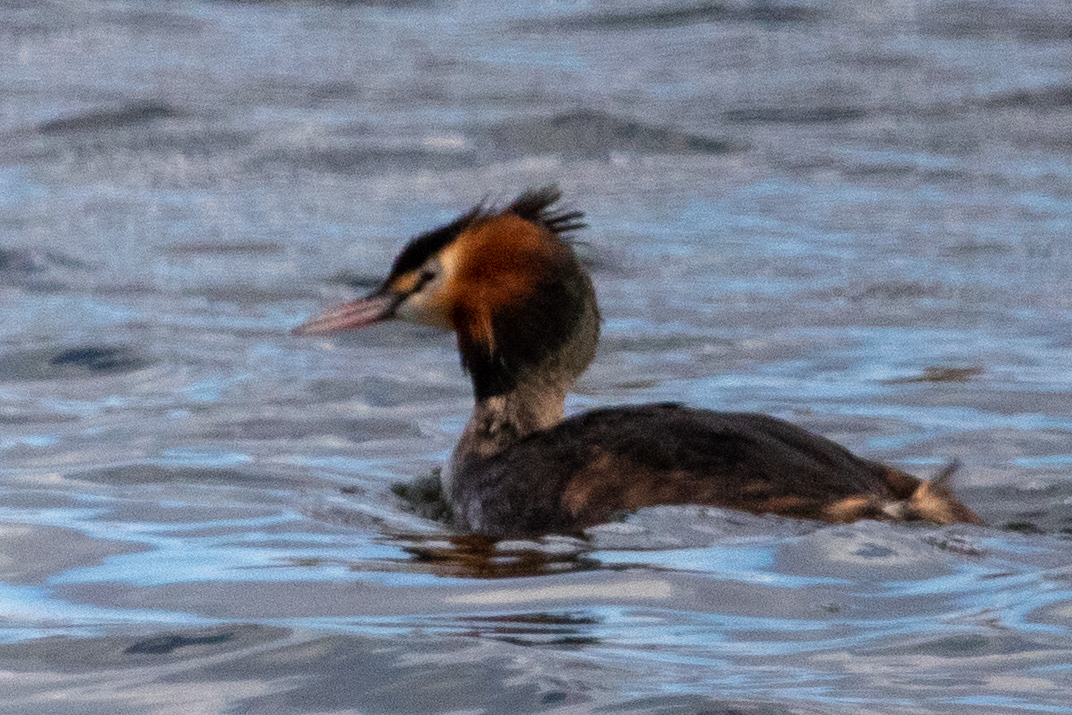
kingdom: Animalia
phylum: Chordata
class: Aves
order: Podicipediformes
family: Podicipedidae
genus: Podiceps
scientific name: Podiceps cristatus
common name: Great crested grebe
